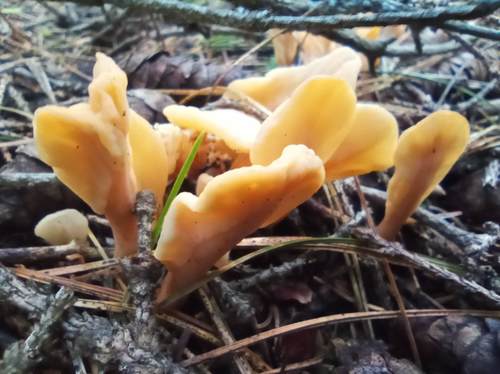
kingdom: Fungi
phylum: Ascomycota
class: Leotiomycetes
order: Rhytismatales
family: Cudoniaceae
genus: Spathularia
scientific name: Spathularia rufa
